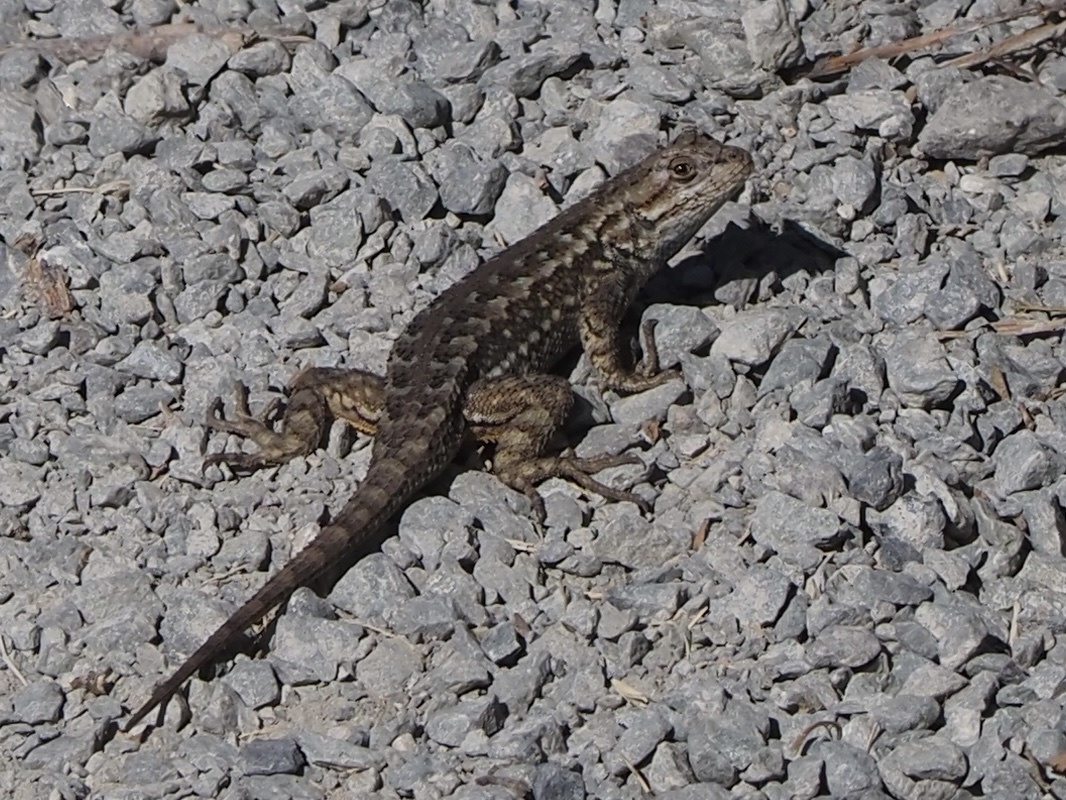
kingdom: Animalia
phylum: Chordata
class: Squamata
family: Phrynosomatidae
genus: Sceloporus
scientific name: Sceloporus occidentalis
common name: Western fence lizard
